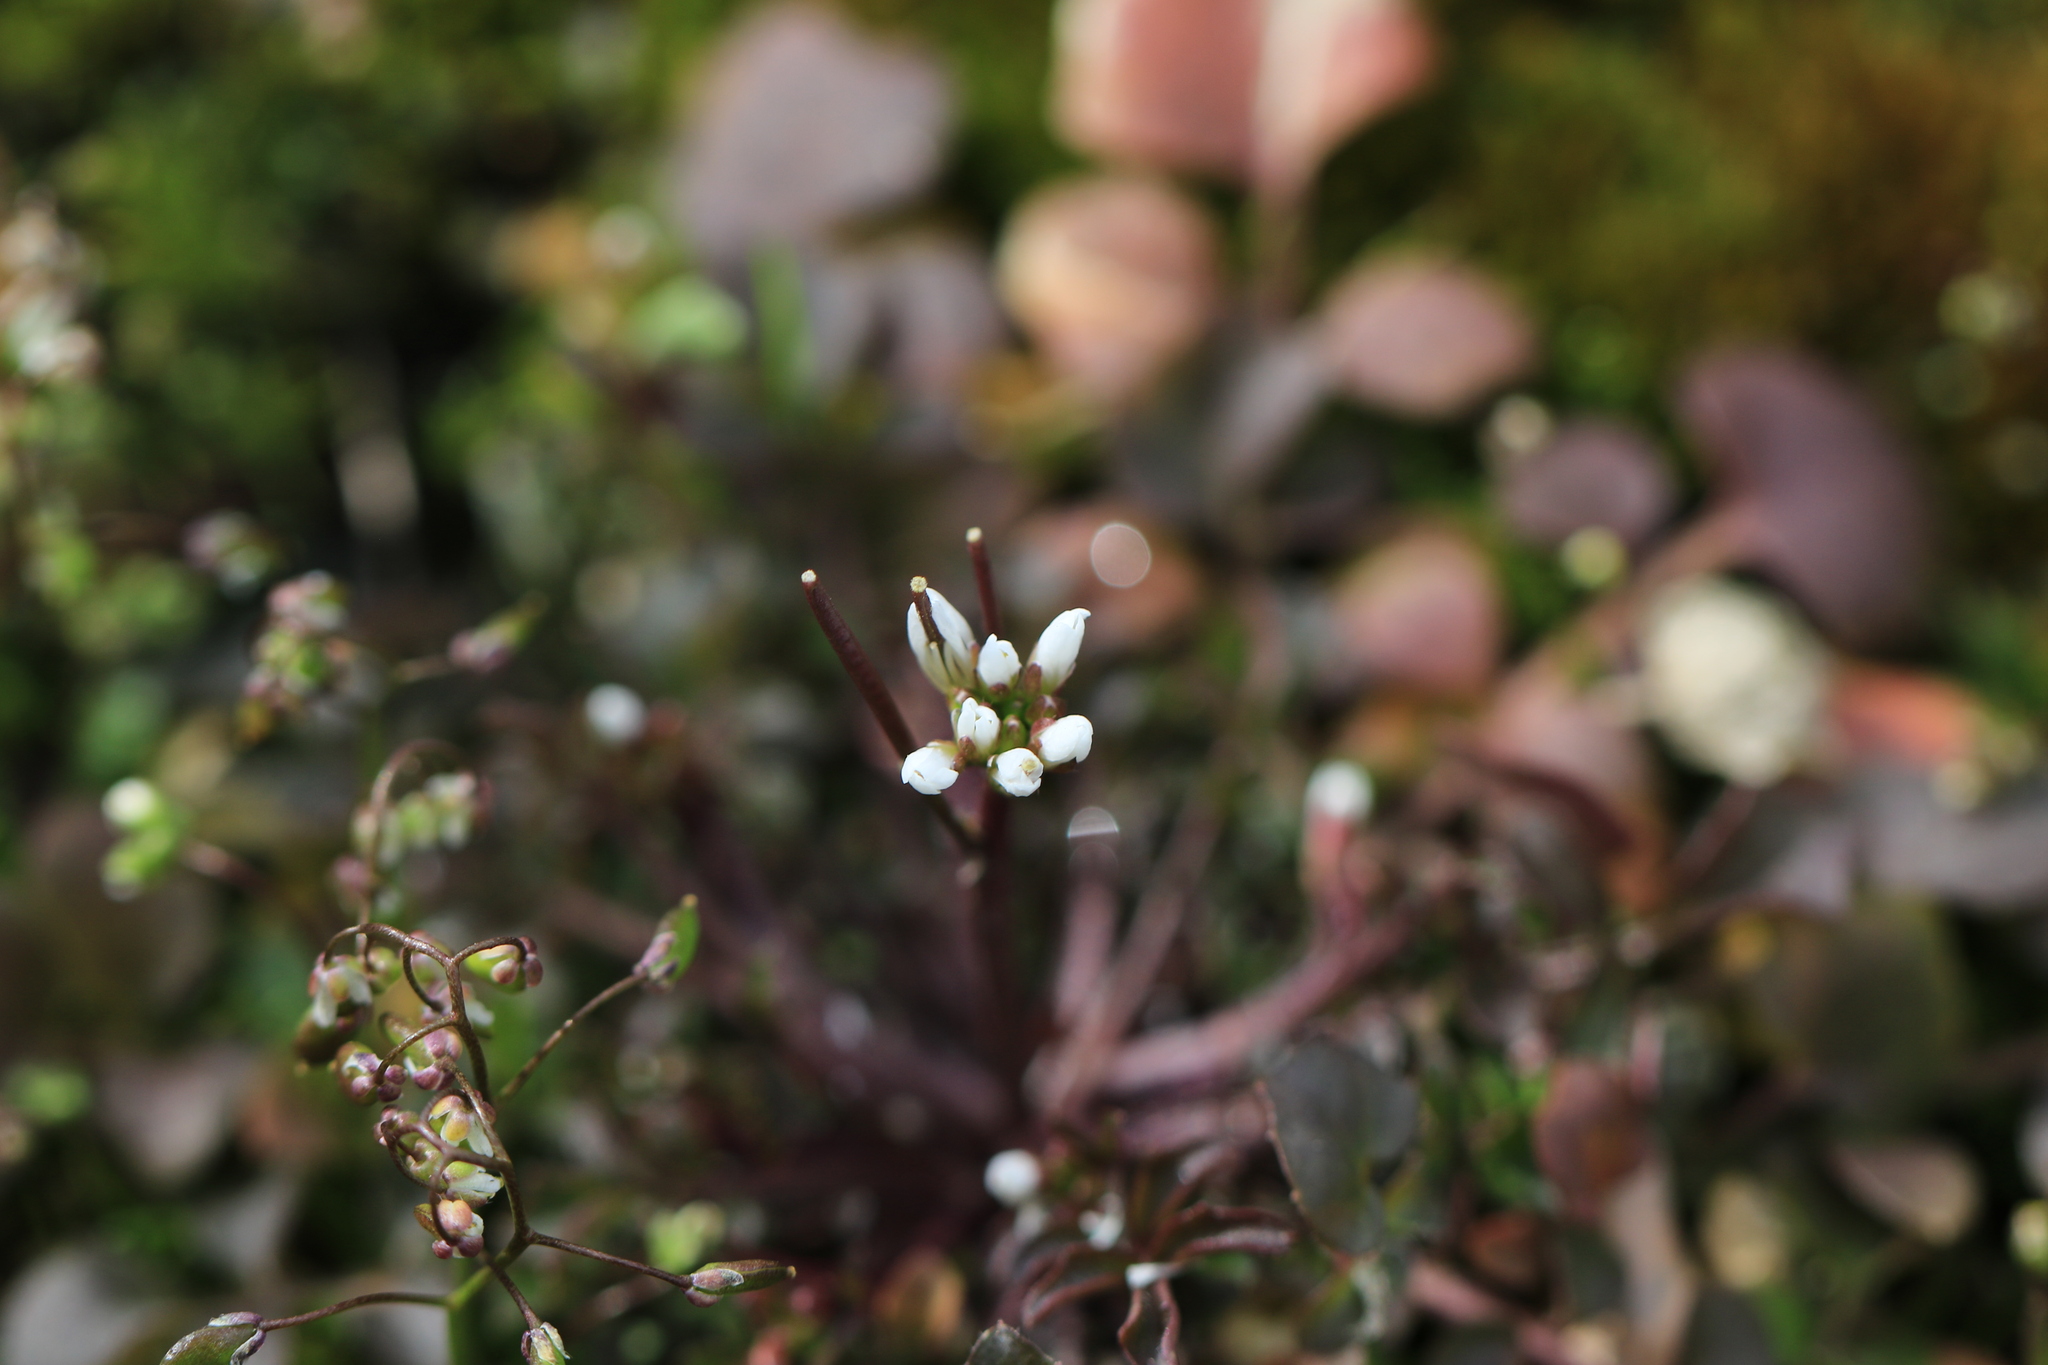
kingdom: Plantae
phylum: Tracheophyta
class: Magnoliopsida
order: Brassicales
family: Brassicaceae
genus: Cardamine
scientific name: Cardamine hirsuta
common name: Hairy bittercress
